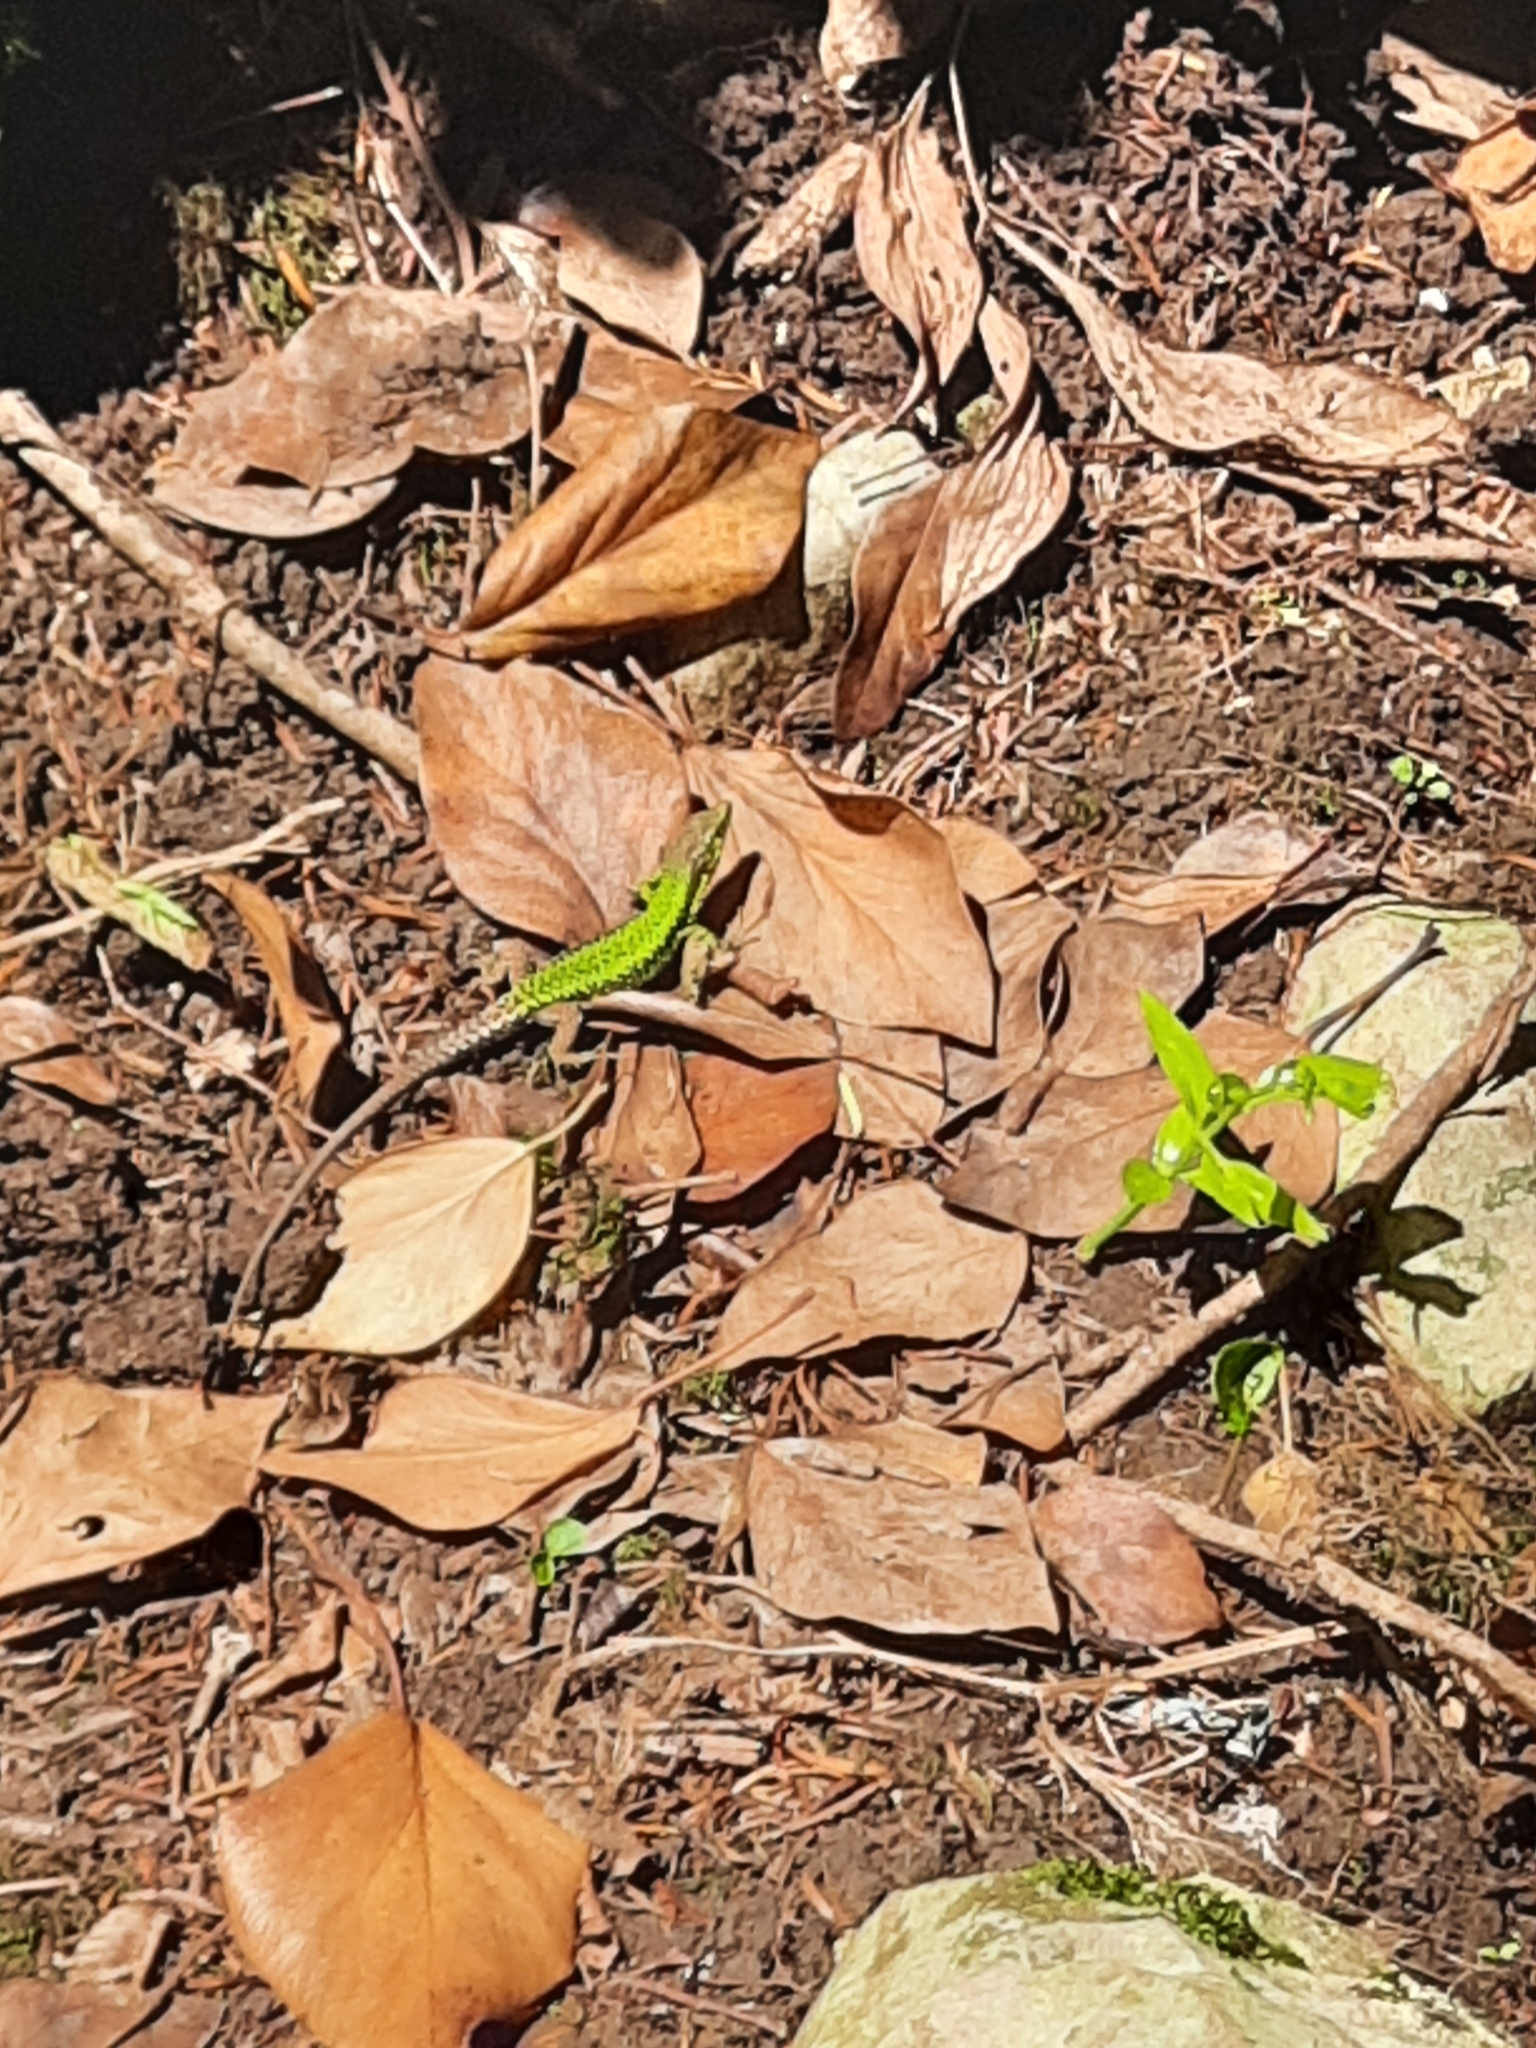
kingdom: Animalia
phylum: Chordata
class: Squamata
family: Lacertidae
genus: Darevskia
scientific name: Darevskia brauneri
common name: Brauner's rock lizard
